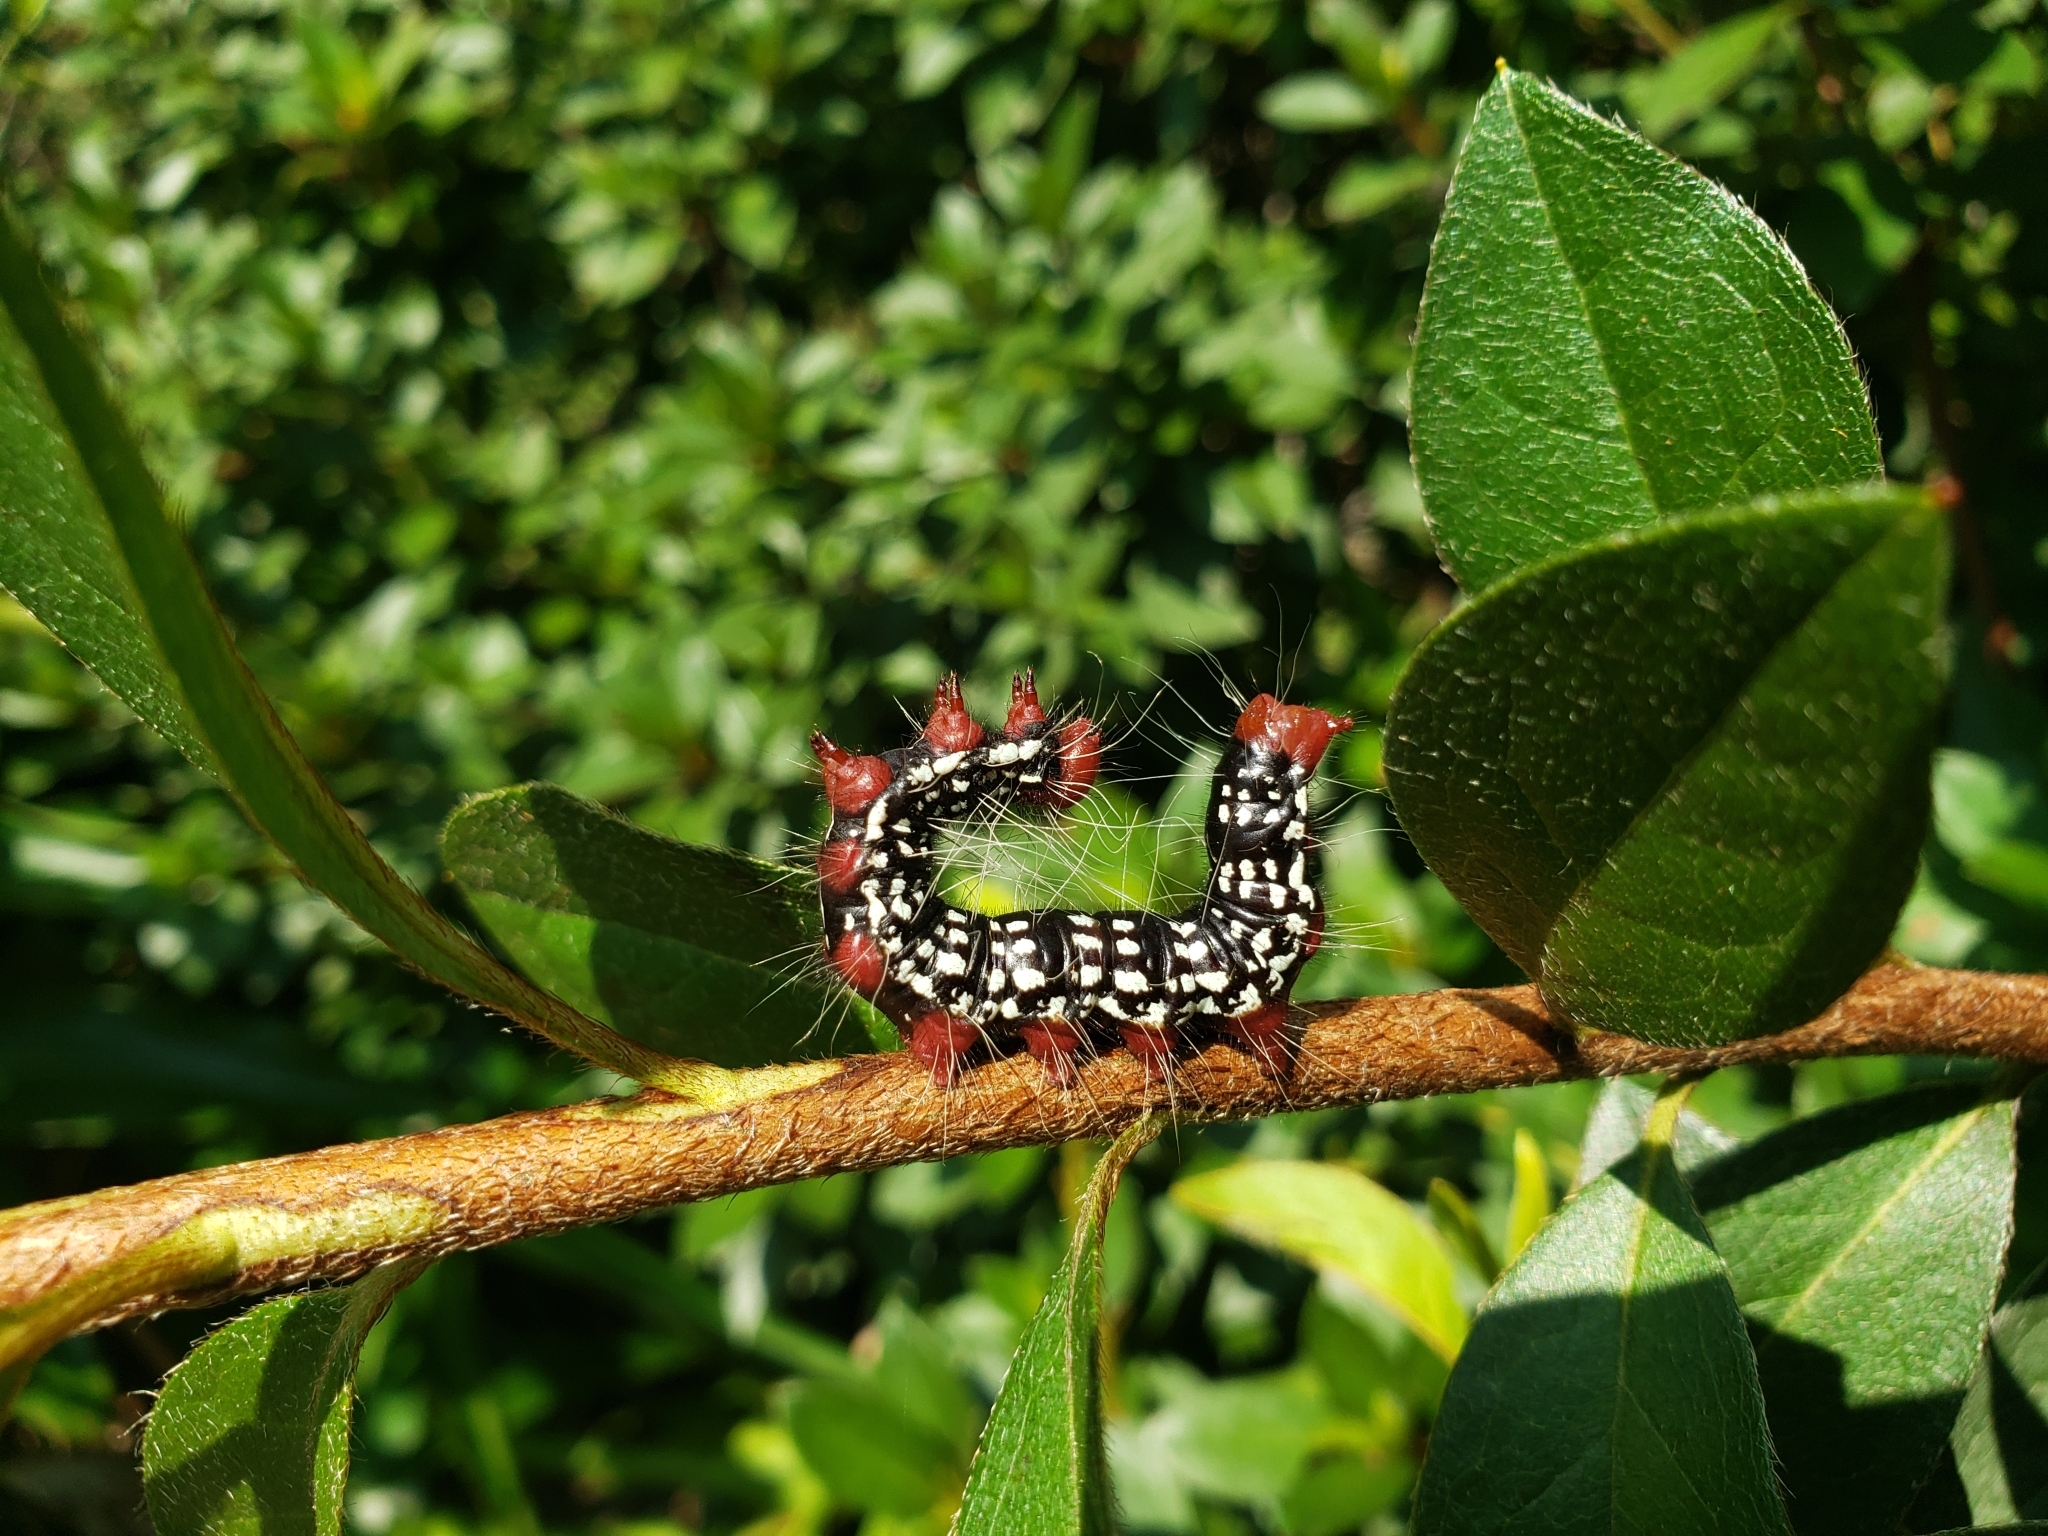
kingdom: Animalia
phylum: Arthropoda
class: Insecta
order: Lepidoptera
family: Notodontidae
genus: Datana
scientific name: Datana major
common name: Azalea caterpillar
